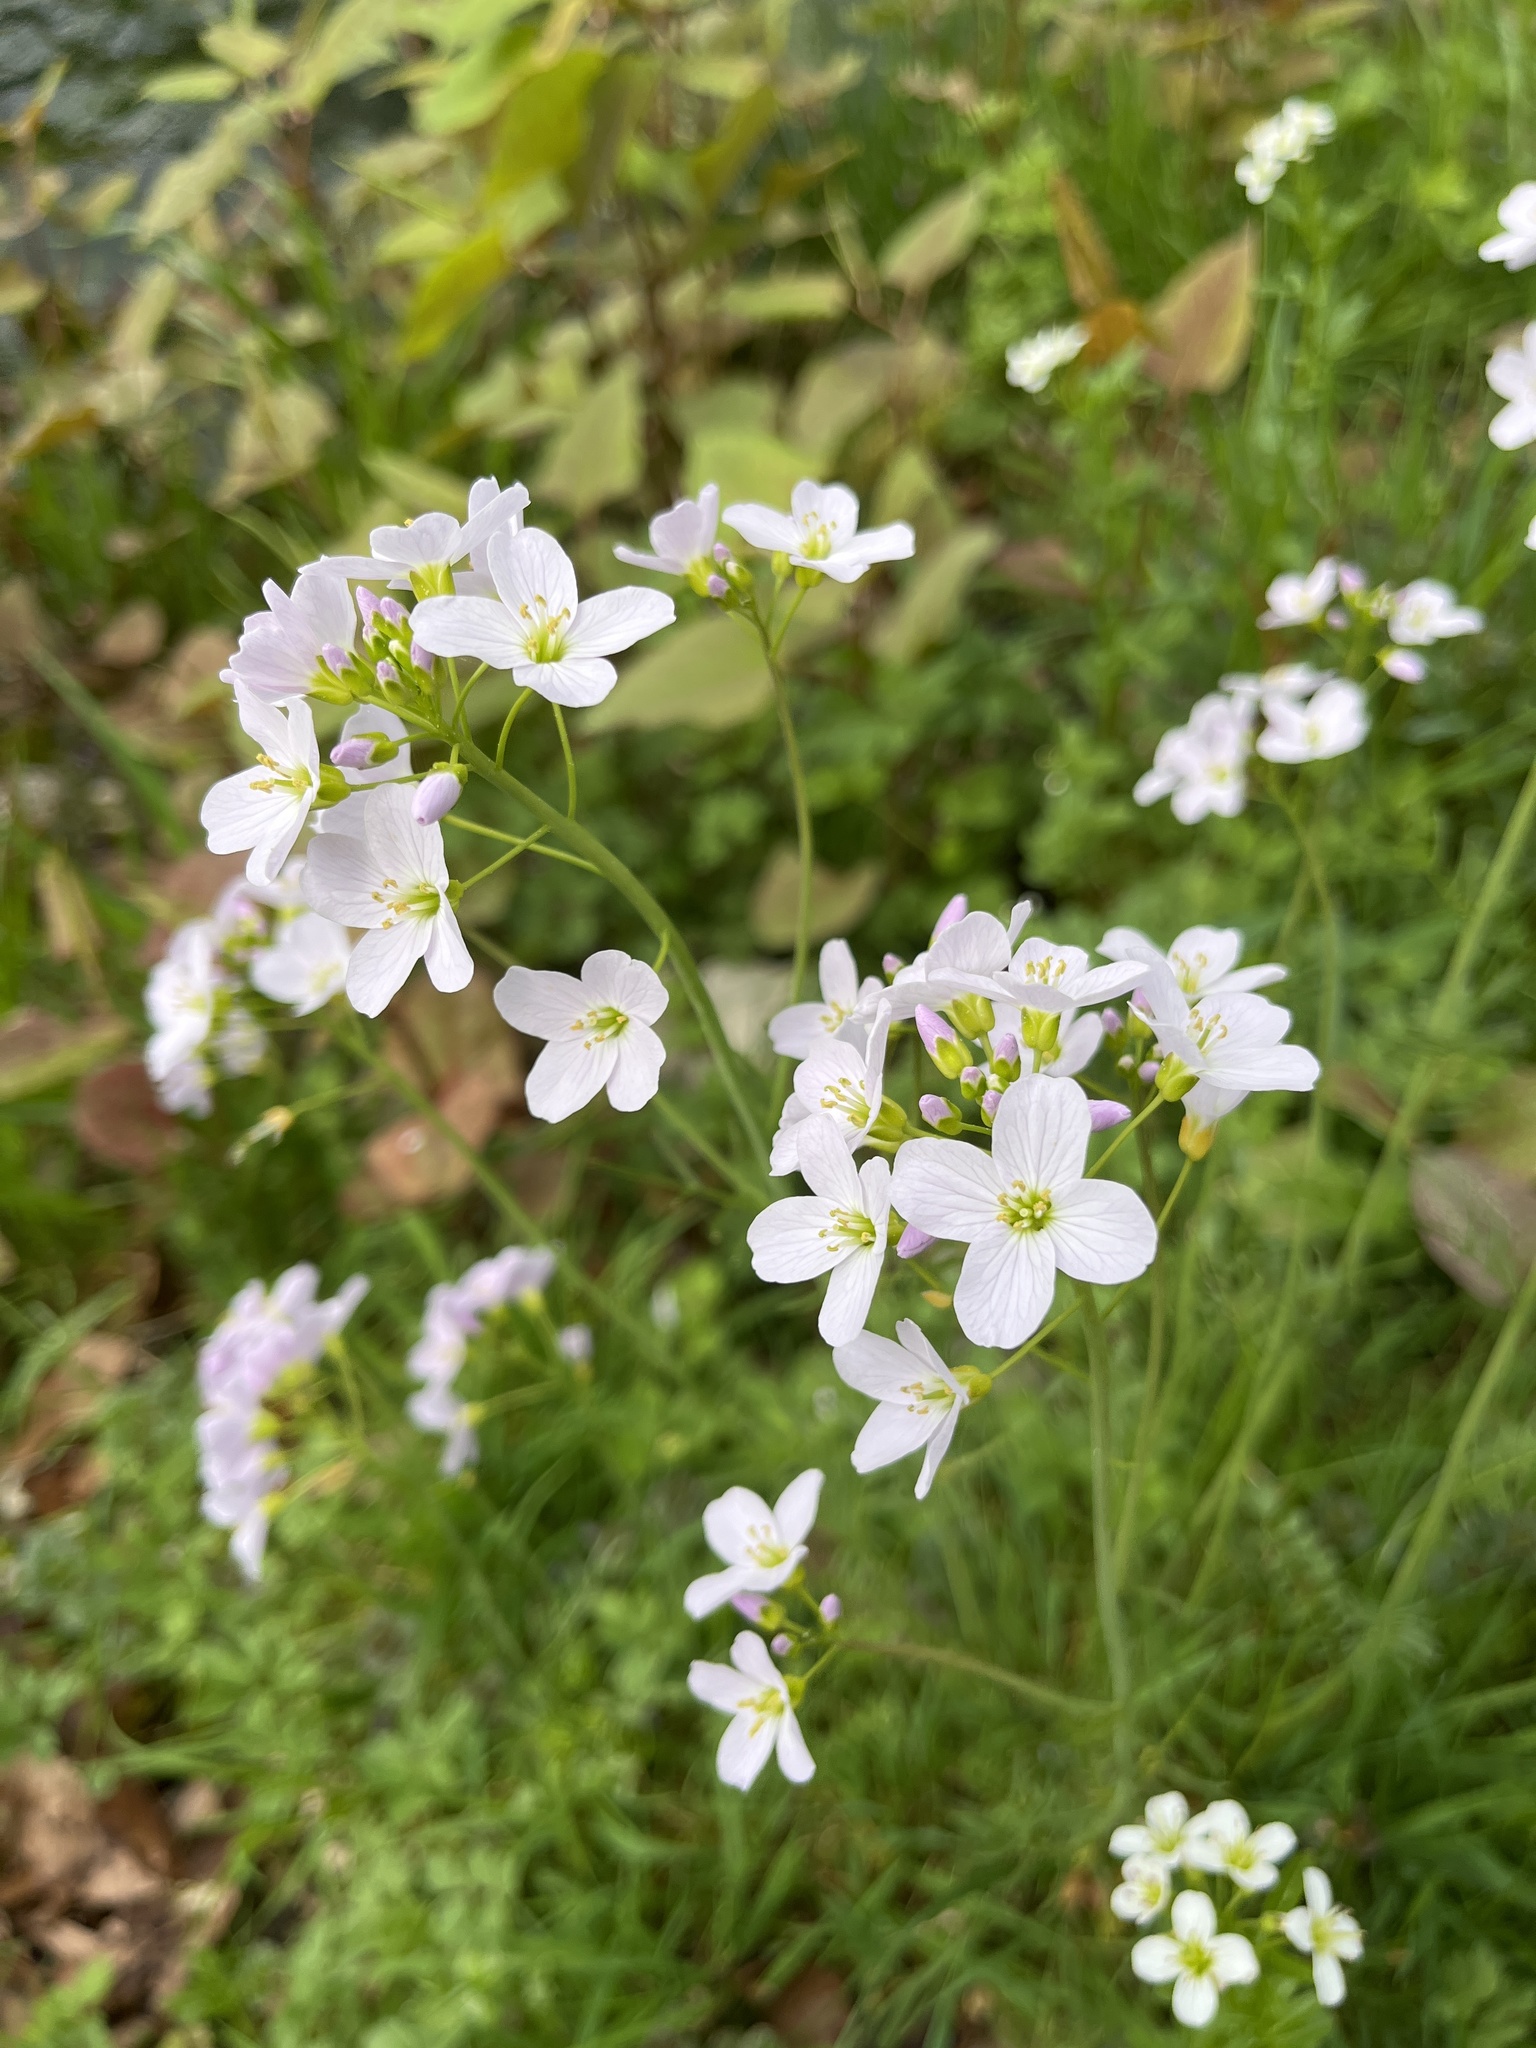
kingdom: Plantae
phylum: Tracheophyta
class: Magnoliopsida
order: Brassicales
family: Brassicaceae
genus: Cardamine
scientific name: Cardamine pratensis
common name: Cuckoo flower
